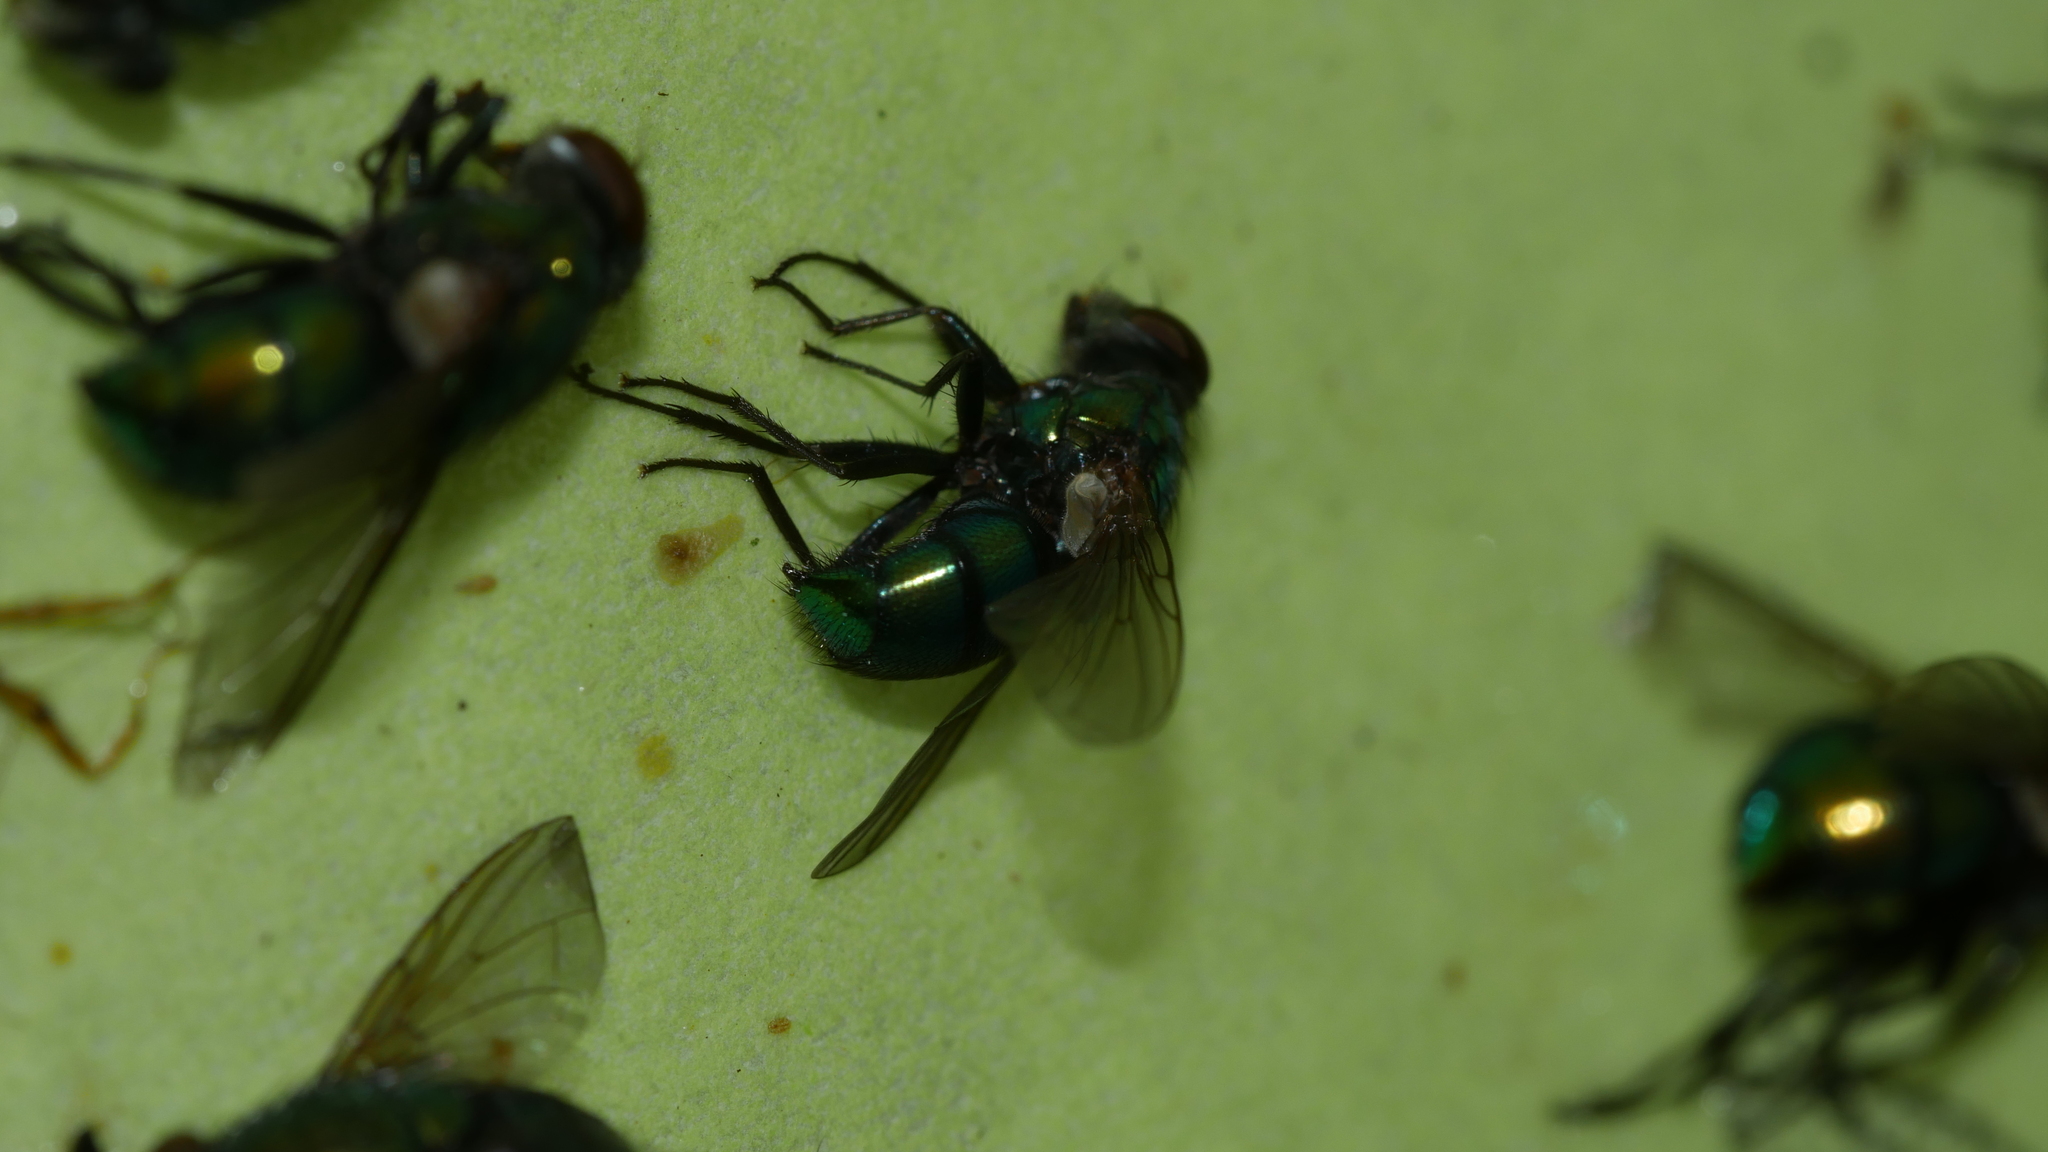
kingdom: Animalia
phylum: Arthropoda
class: Insecta
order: Diptera
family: Calliphoridae
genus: Lucilia
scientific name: Lucilia caeruleiviridis
